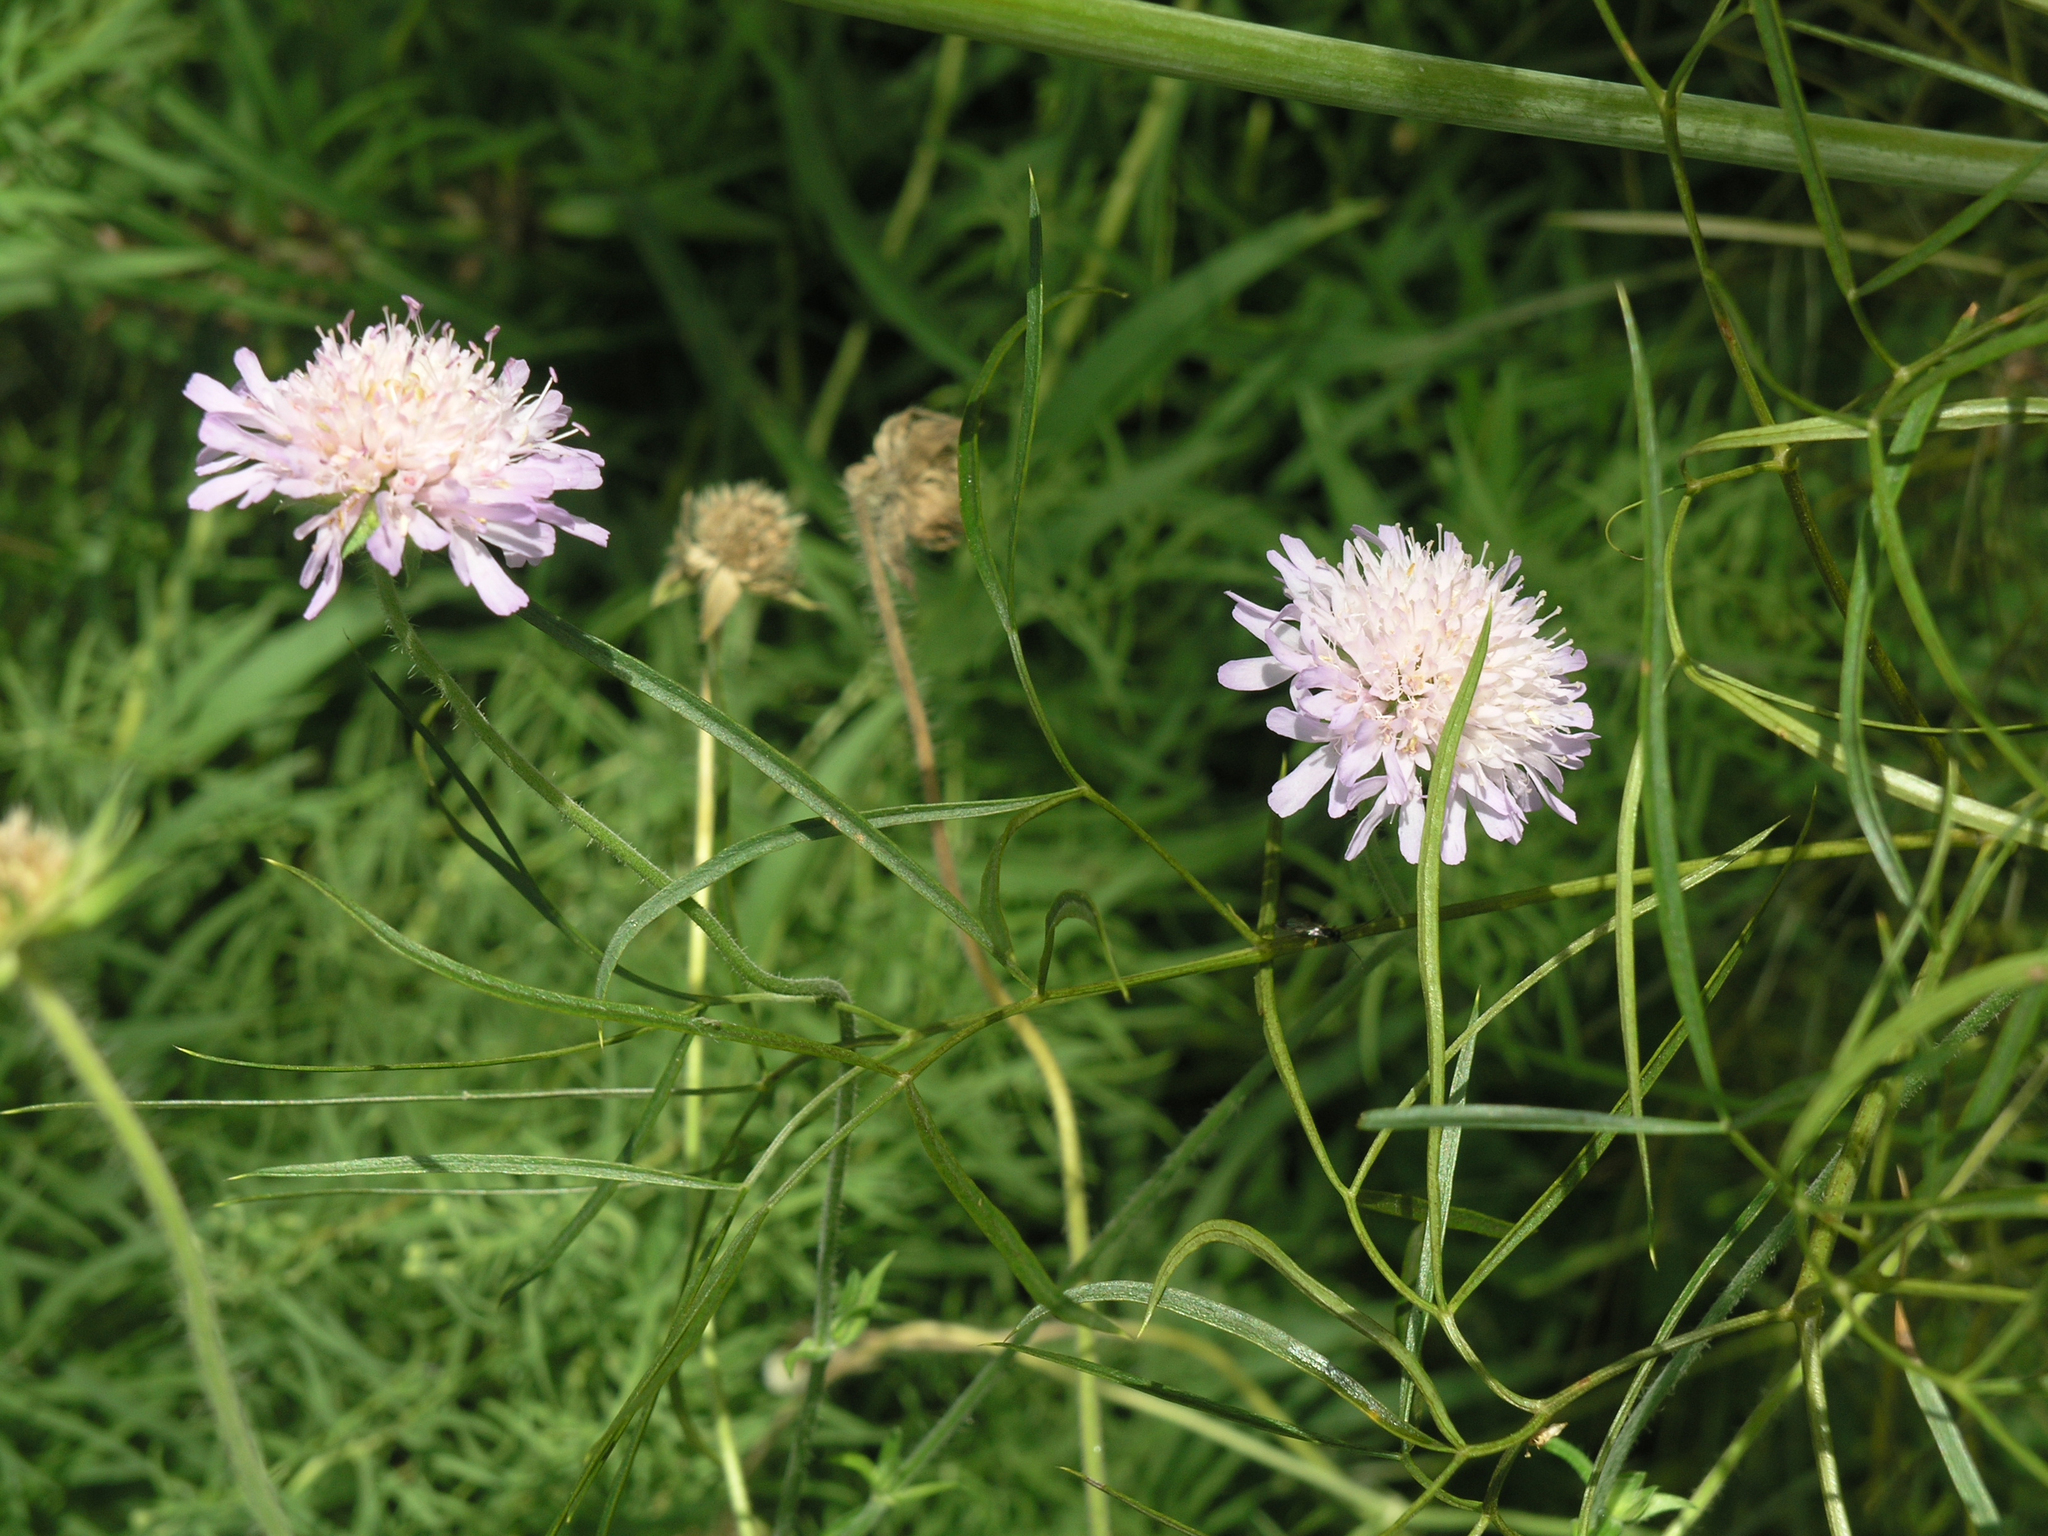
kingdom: Plantae
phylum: Tracheophyta
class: Magnoliopsida
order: Dipsacales
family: Caprifoliaceae
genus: Knautia
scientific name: Knautia arvensis
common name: Field scabiosa
